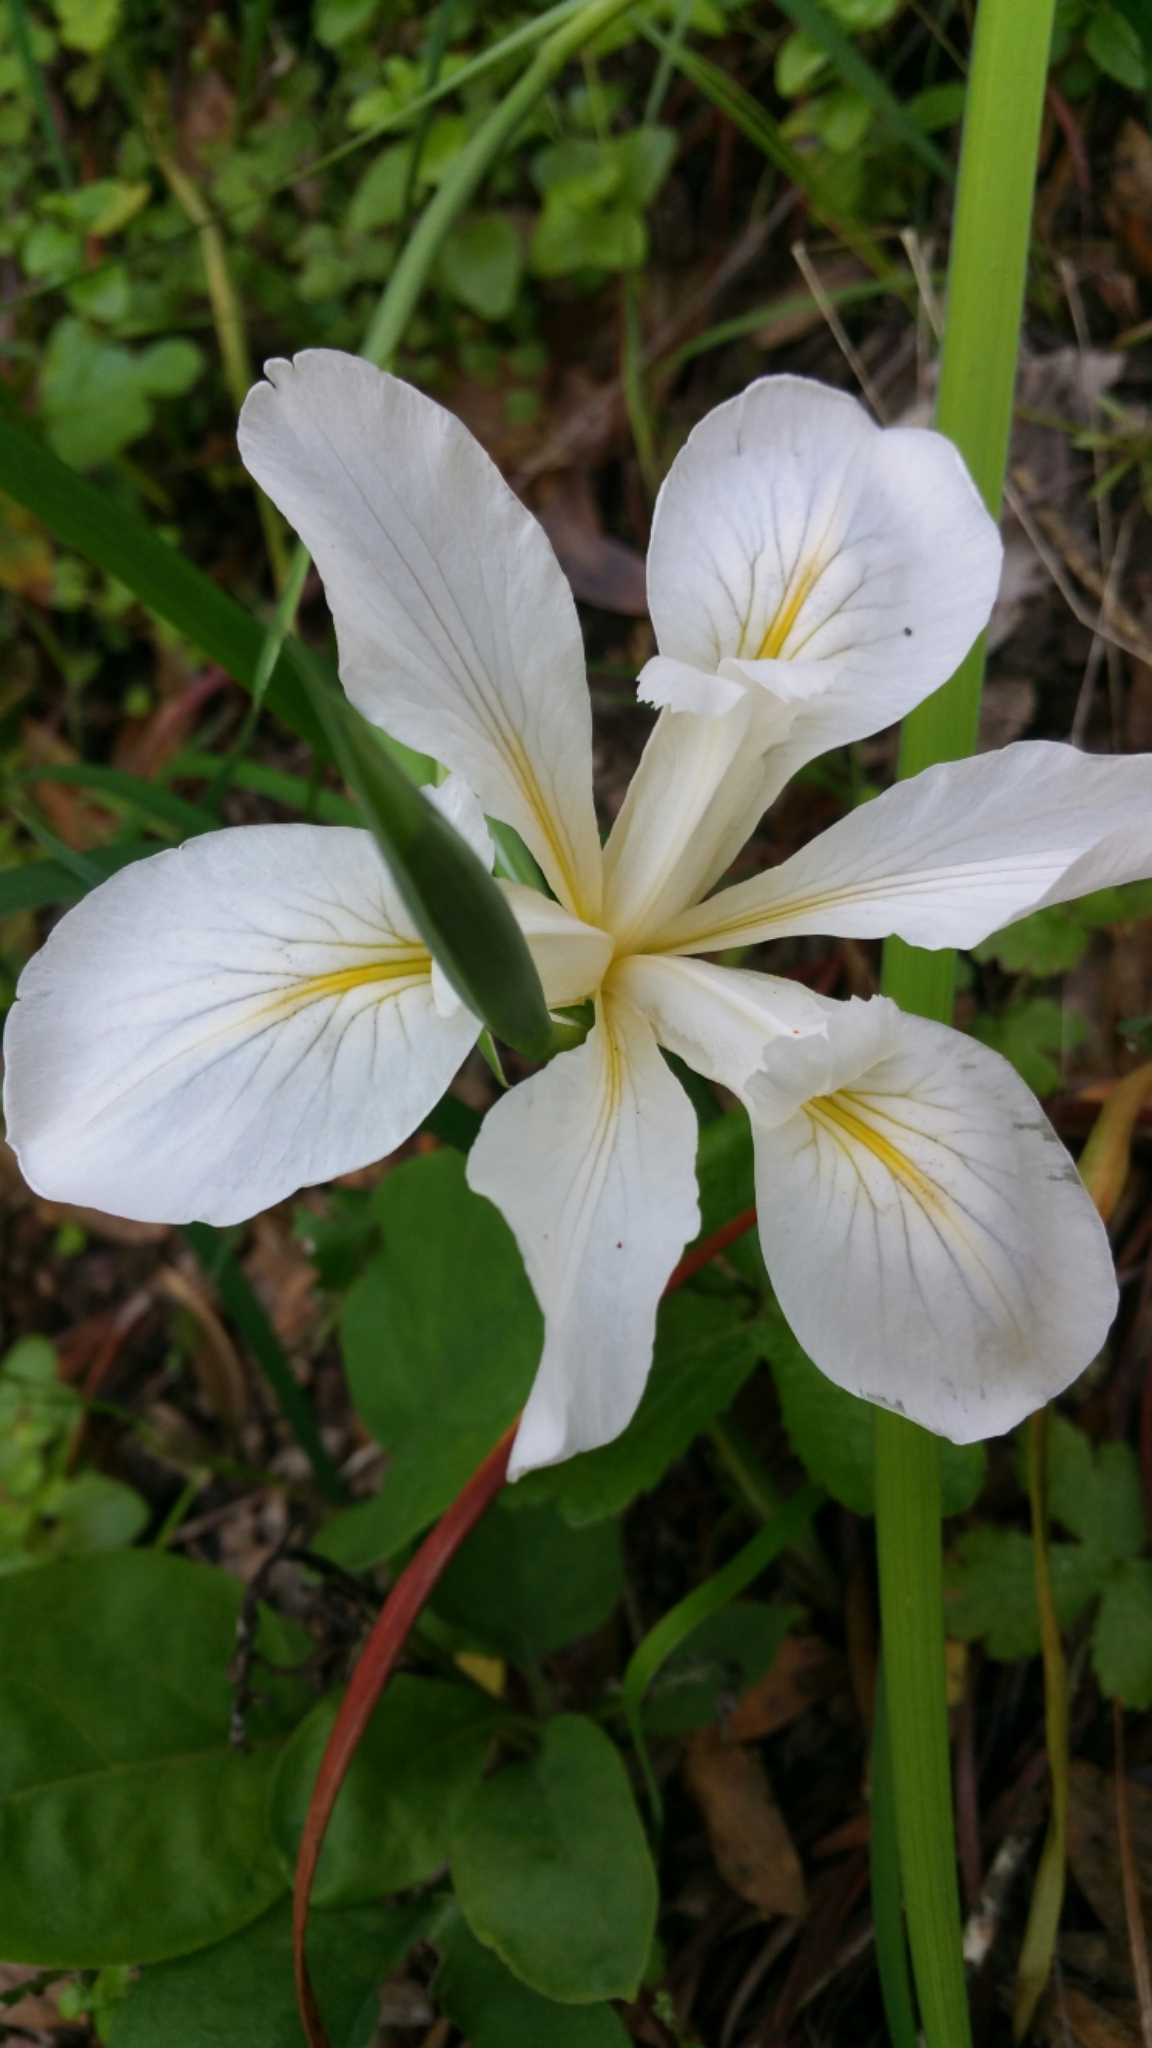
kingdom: Plantae
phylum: Tracheophyta
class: Liliopsida
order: Asparagales
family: Iridaceae
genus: Iris
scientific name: Iris douglasiana
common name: Marin iris
